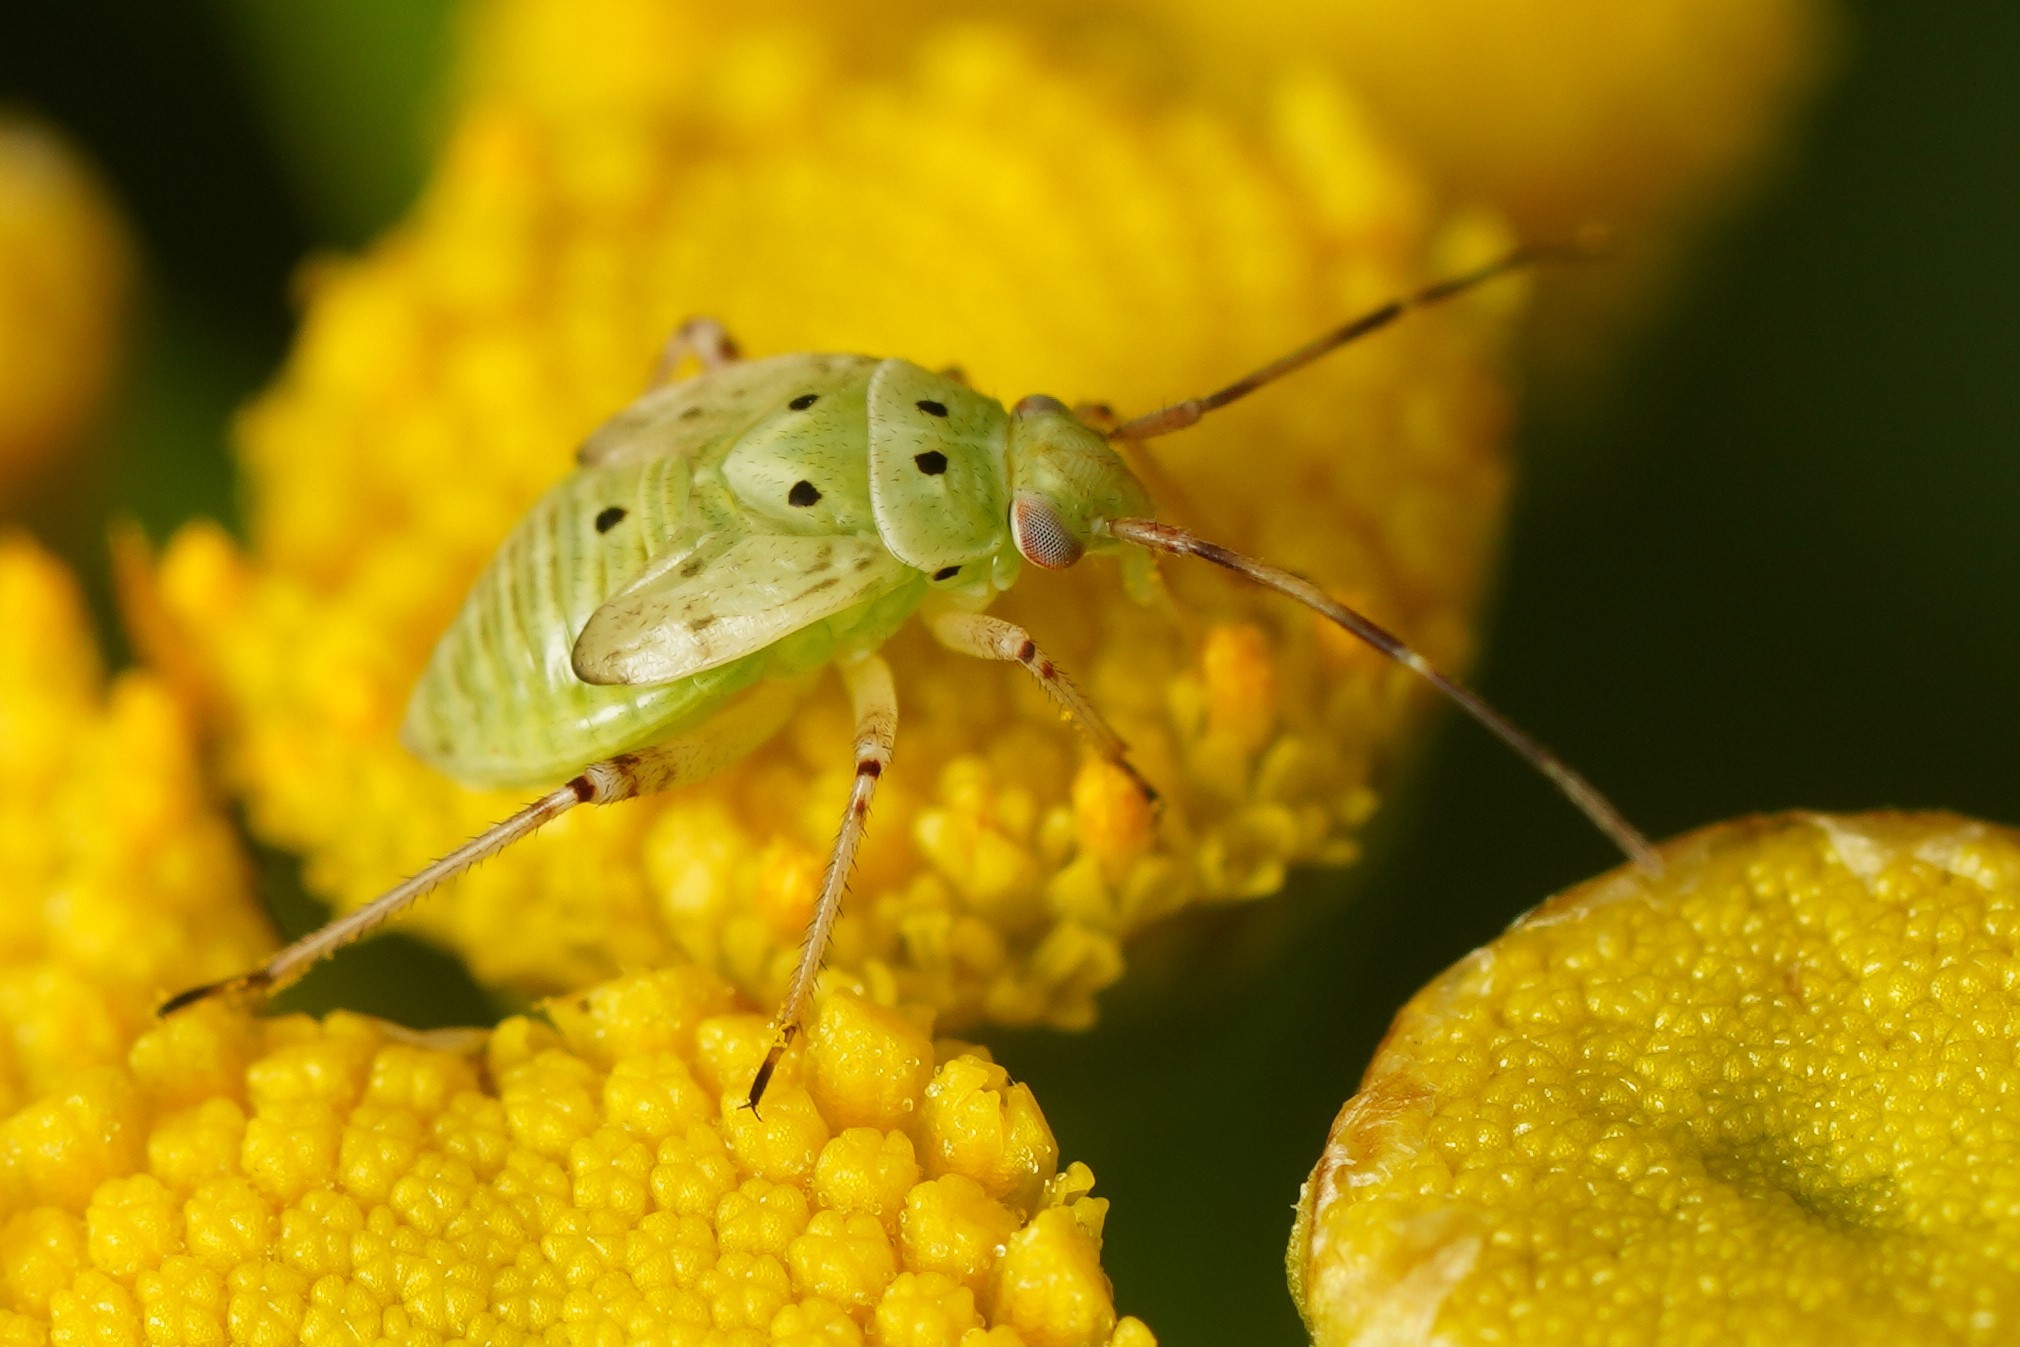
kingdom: Animalia
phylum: Arthropoda
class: Insecta
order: Hemiptera
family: Miridae
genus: Lygus
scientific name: Lygus lineolaris
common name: North american tarnished plant bug
